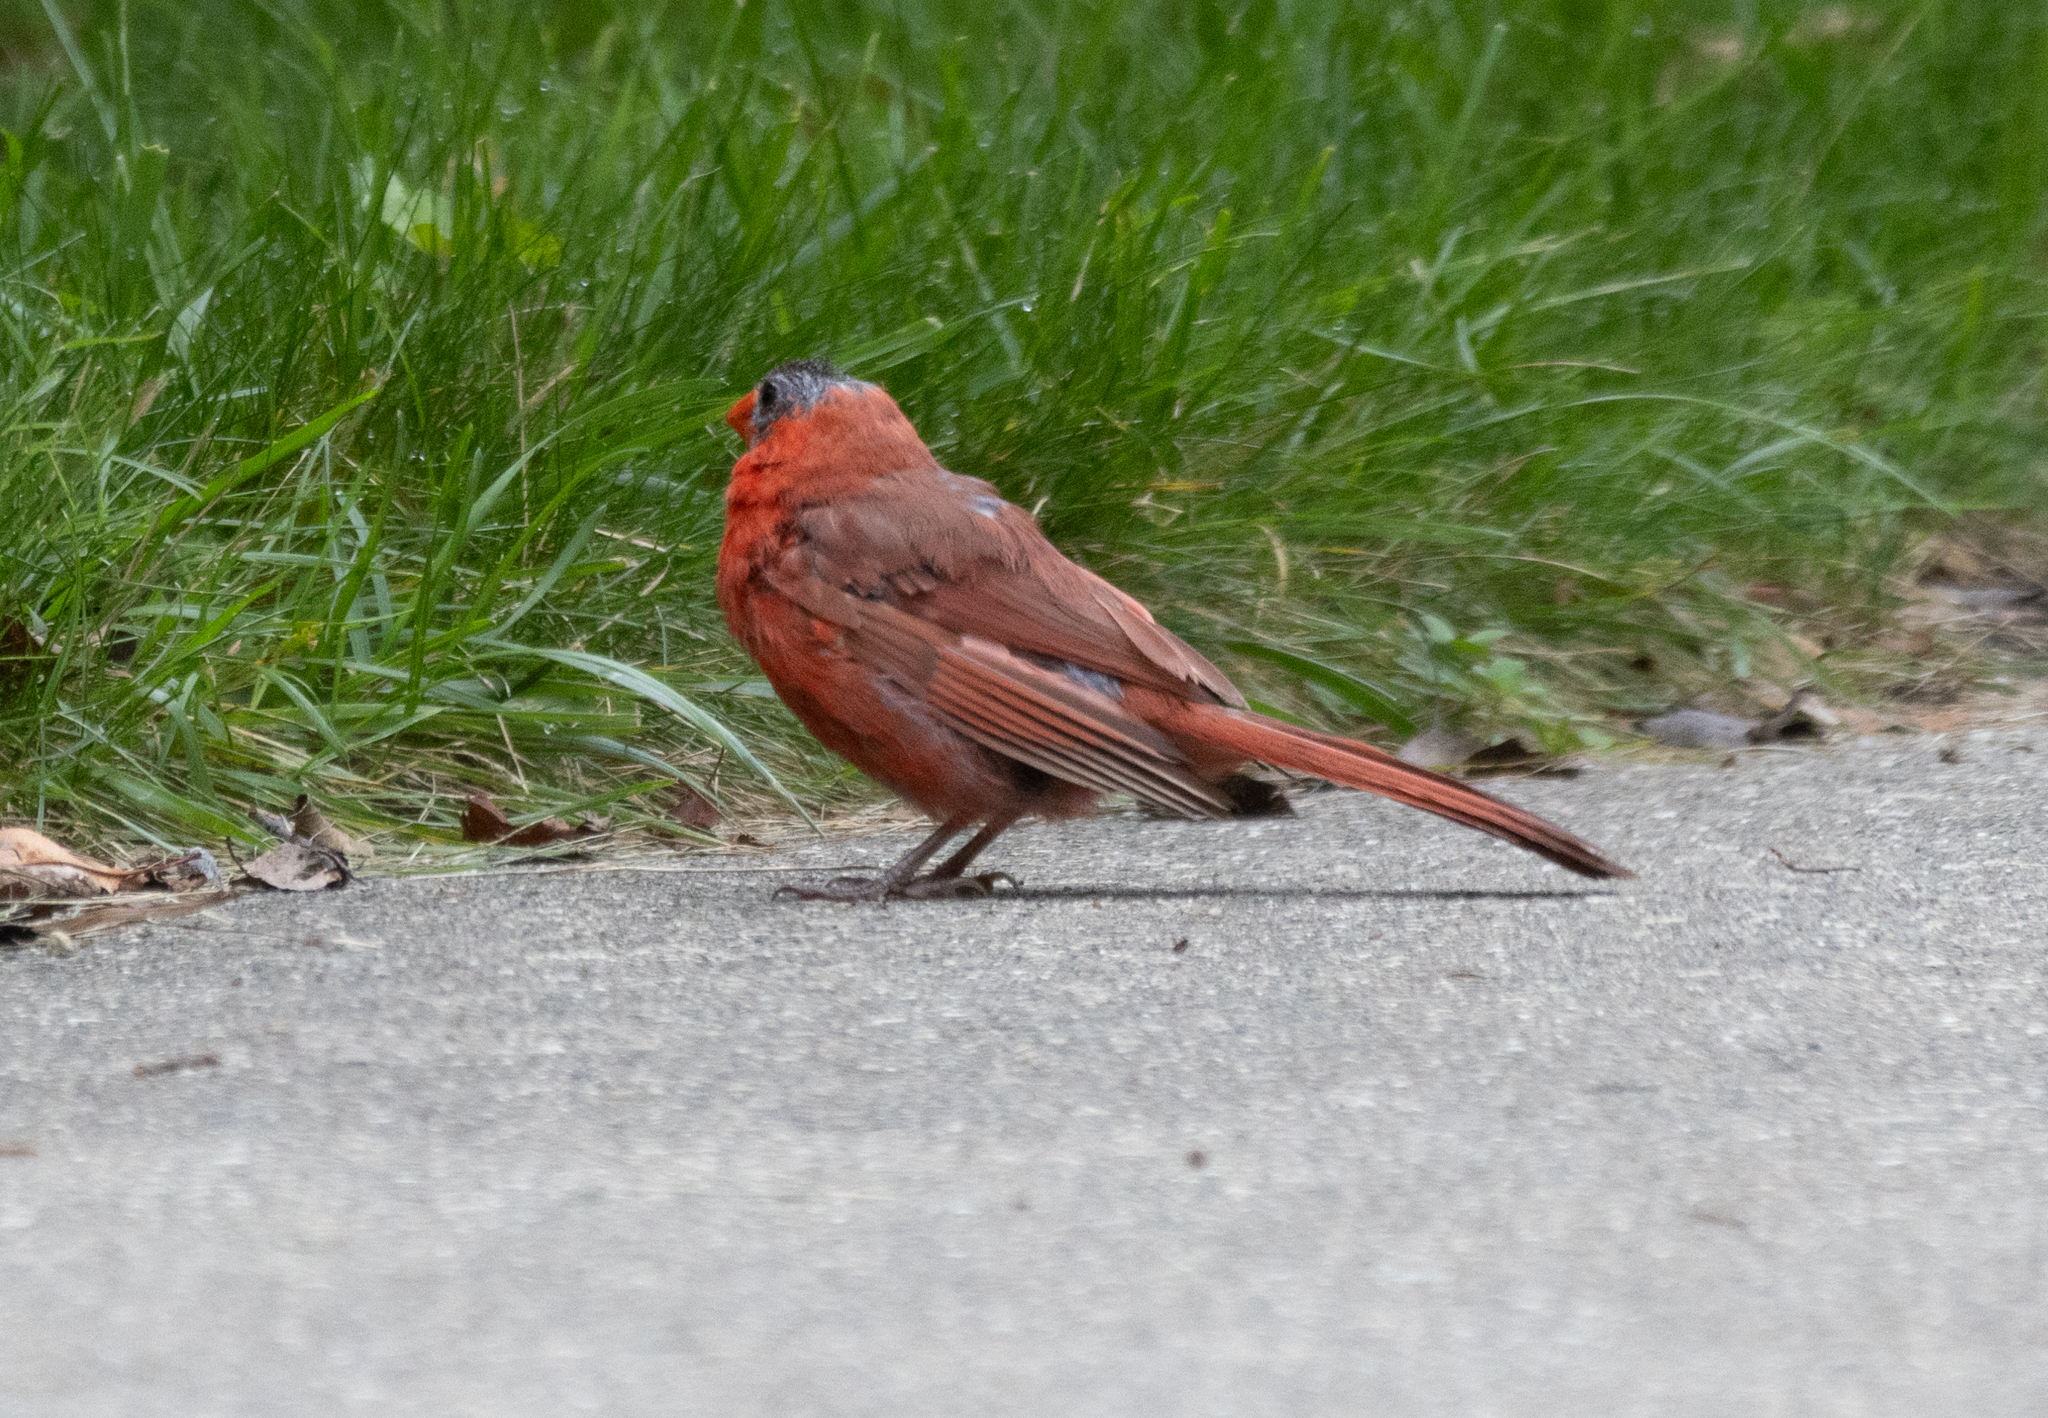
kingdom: Animalia
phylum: Chordata
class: Aves
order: Passeriformes
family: Cardinalidae
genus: Cardinalis
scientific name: Cardinalis cardinalis
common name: Northern cardinal
